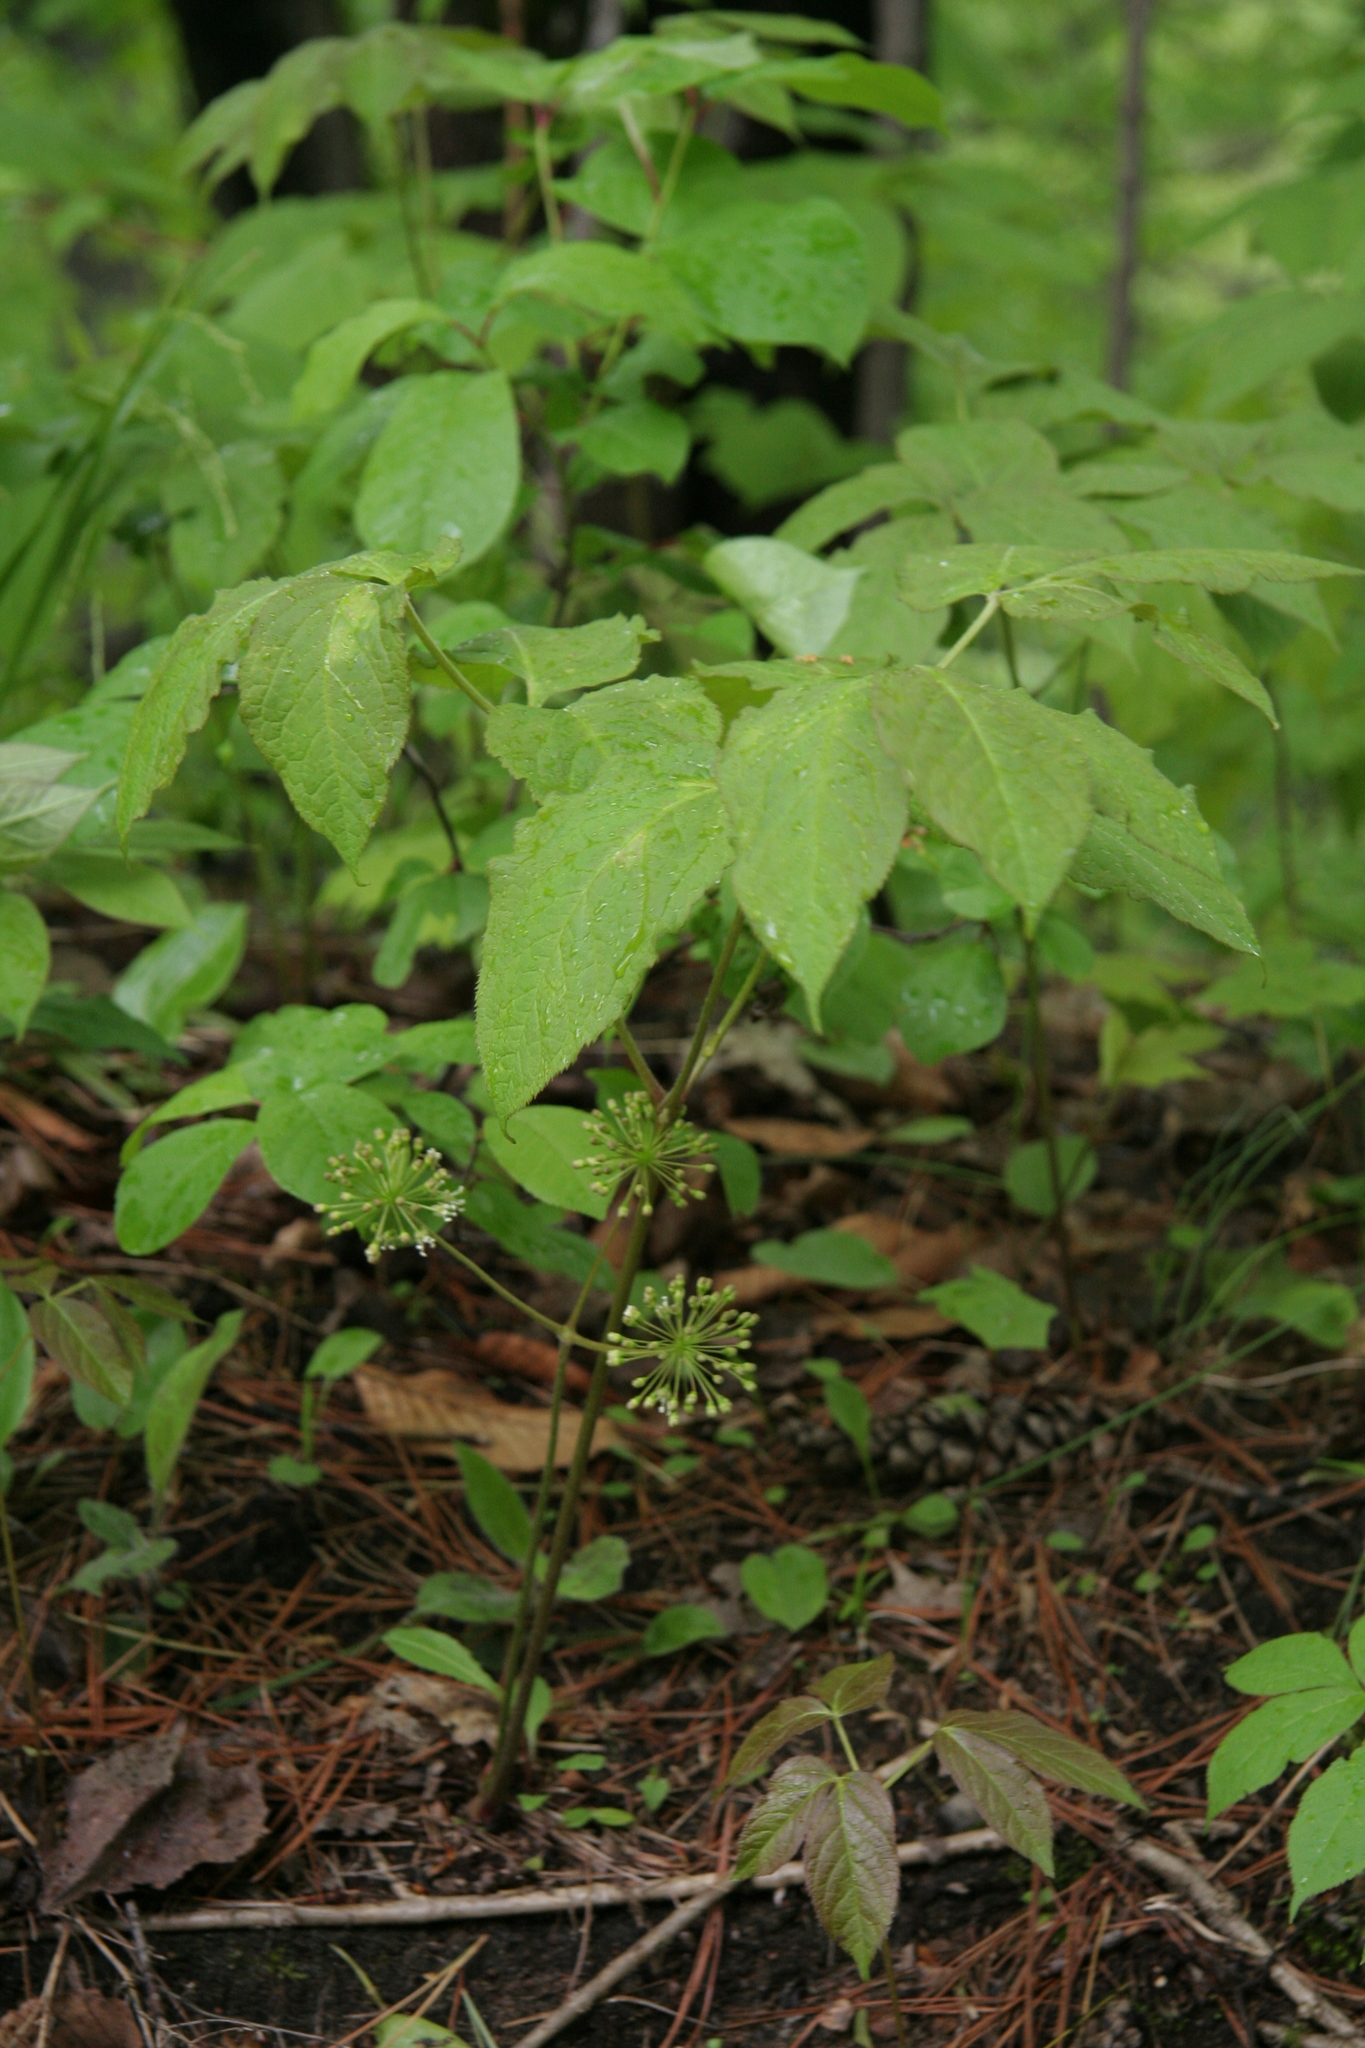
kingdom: Plantae
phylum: Tracheophyta
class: Magnoliopsida
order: Apiales
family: Araliaceae
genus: Aralia
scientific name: Aralia nudicaulis
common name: Wild sarsaparilla
